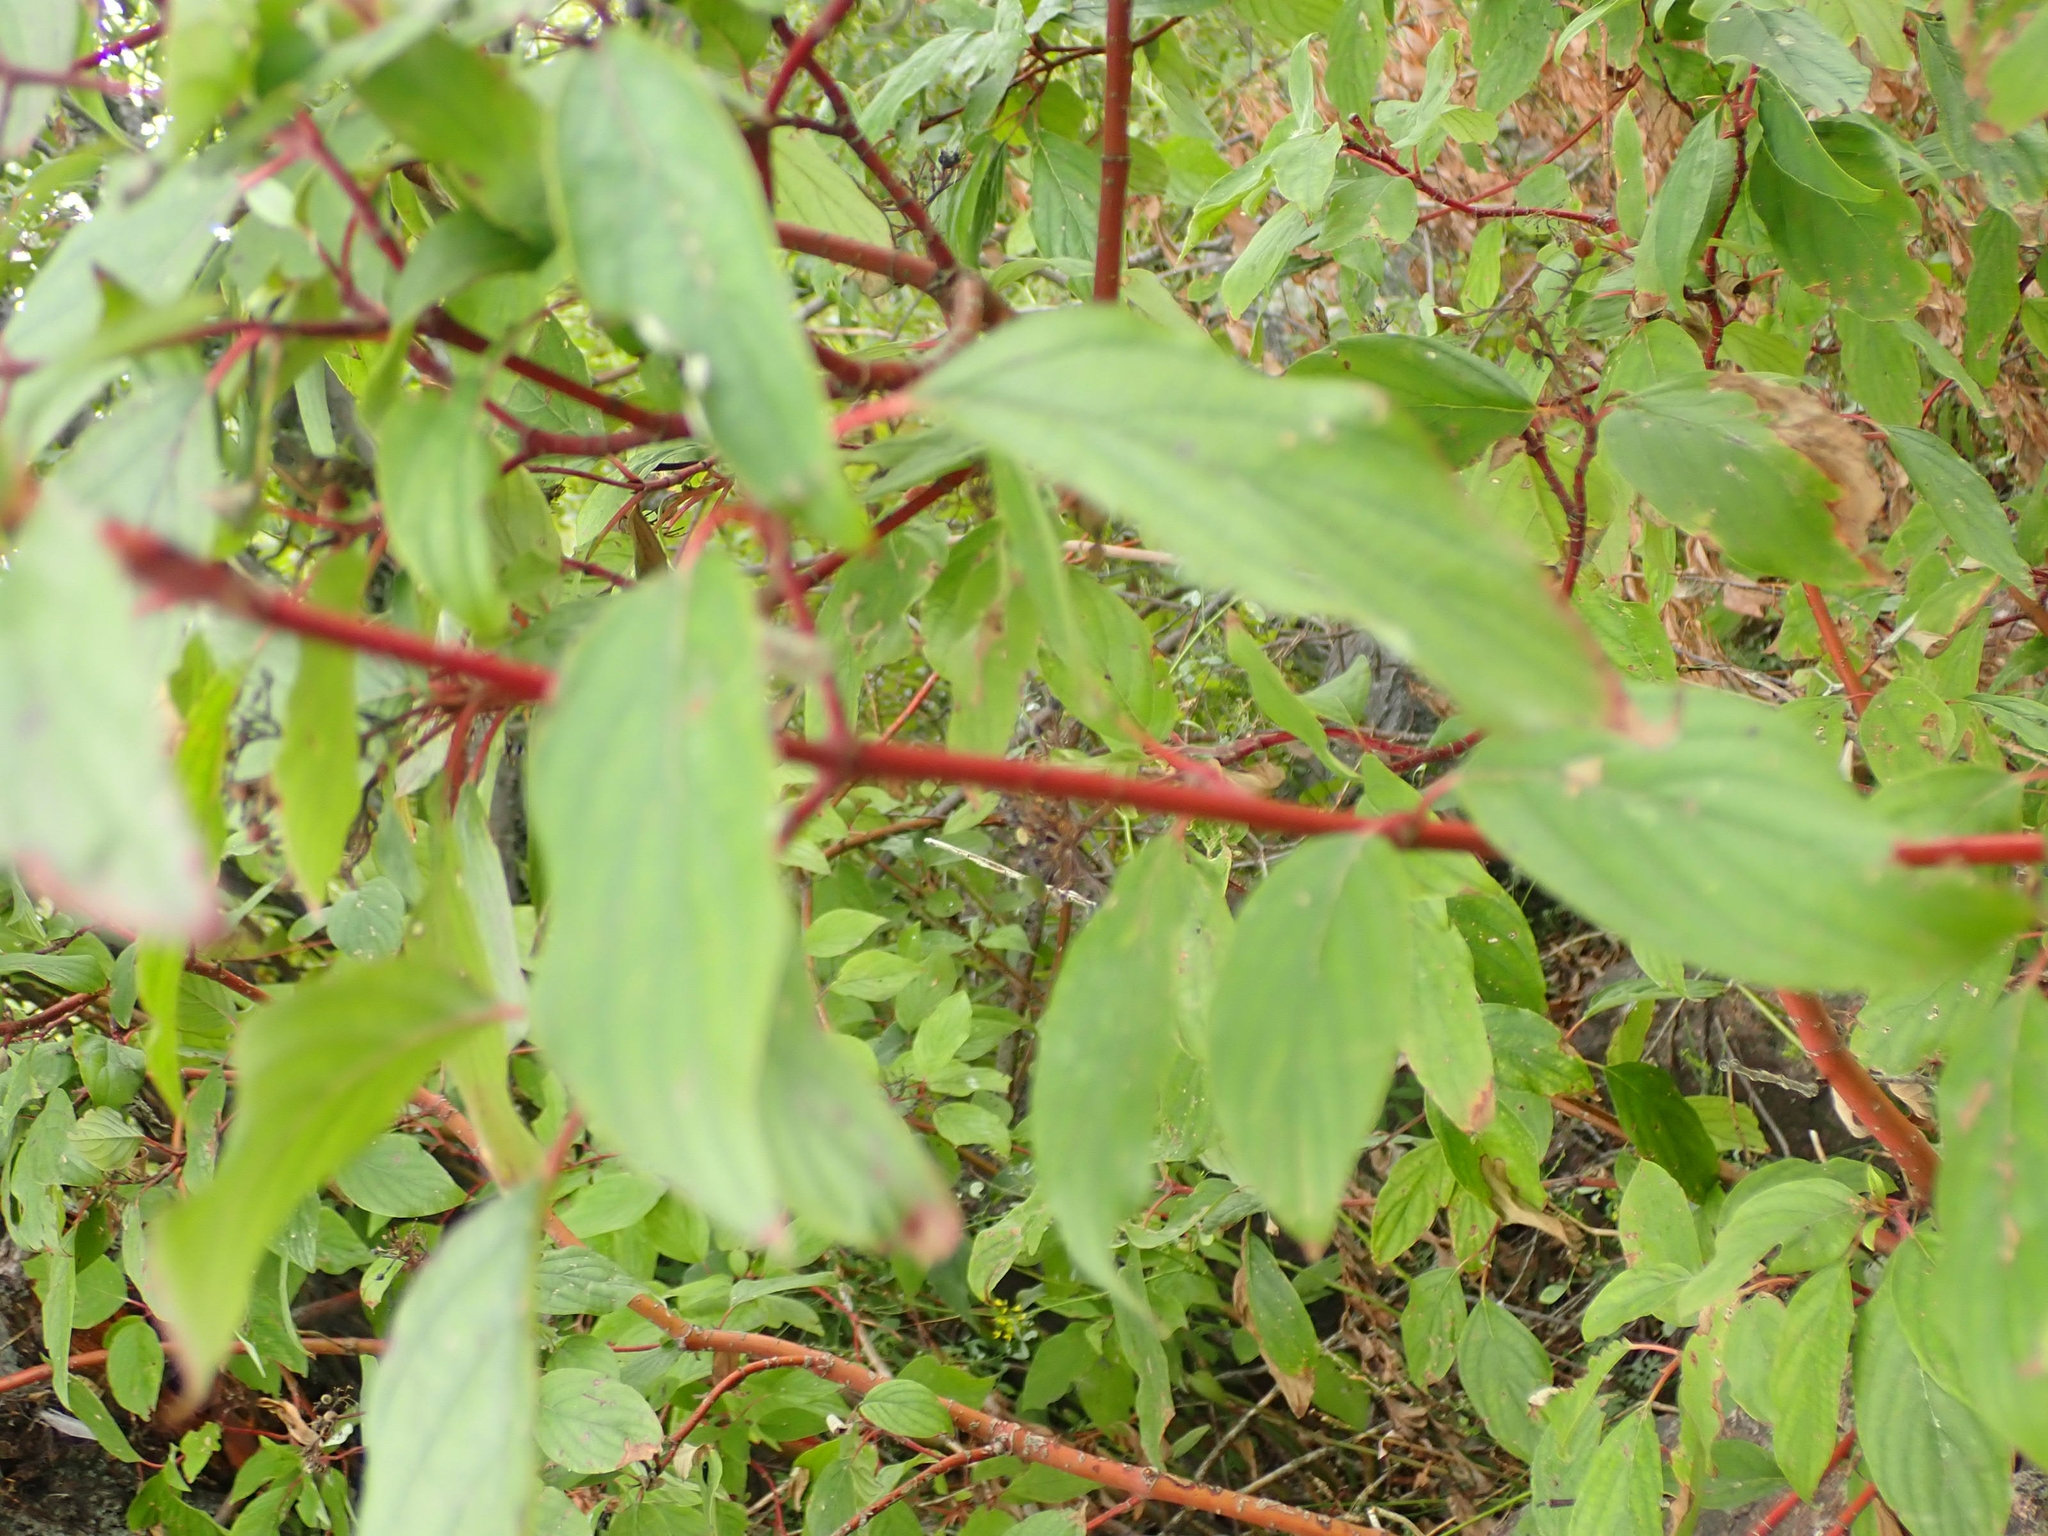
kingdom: Plantae
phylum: Tracheophyta
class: Magnoliopsida
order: Cornales
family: Cornaceae
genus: Cornus
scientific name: Cornus sericea
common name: Red-osier dogwood
